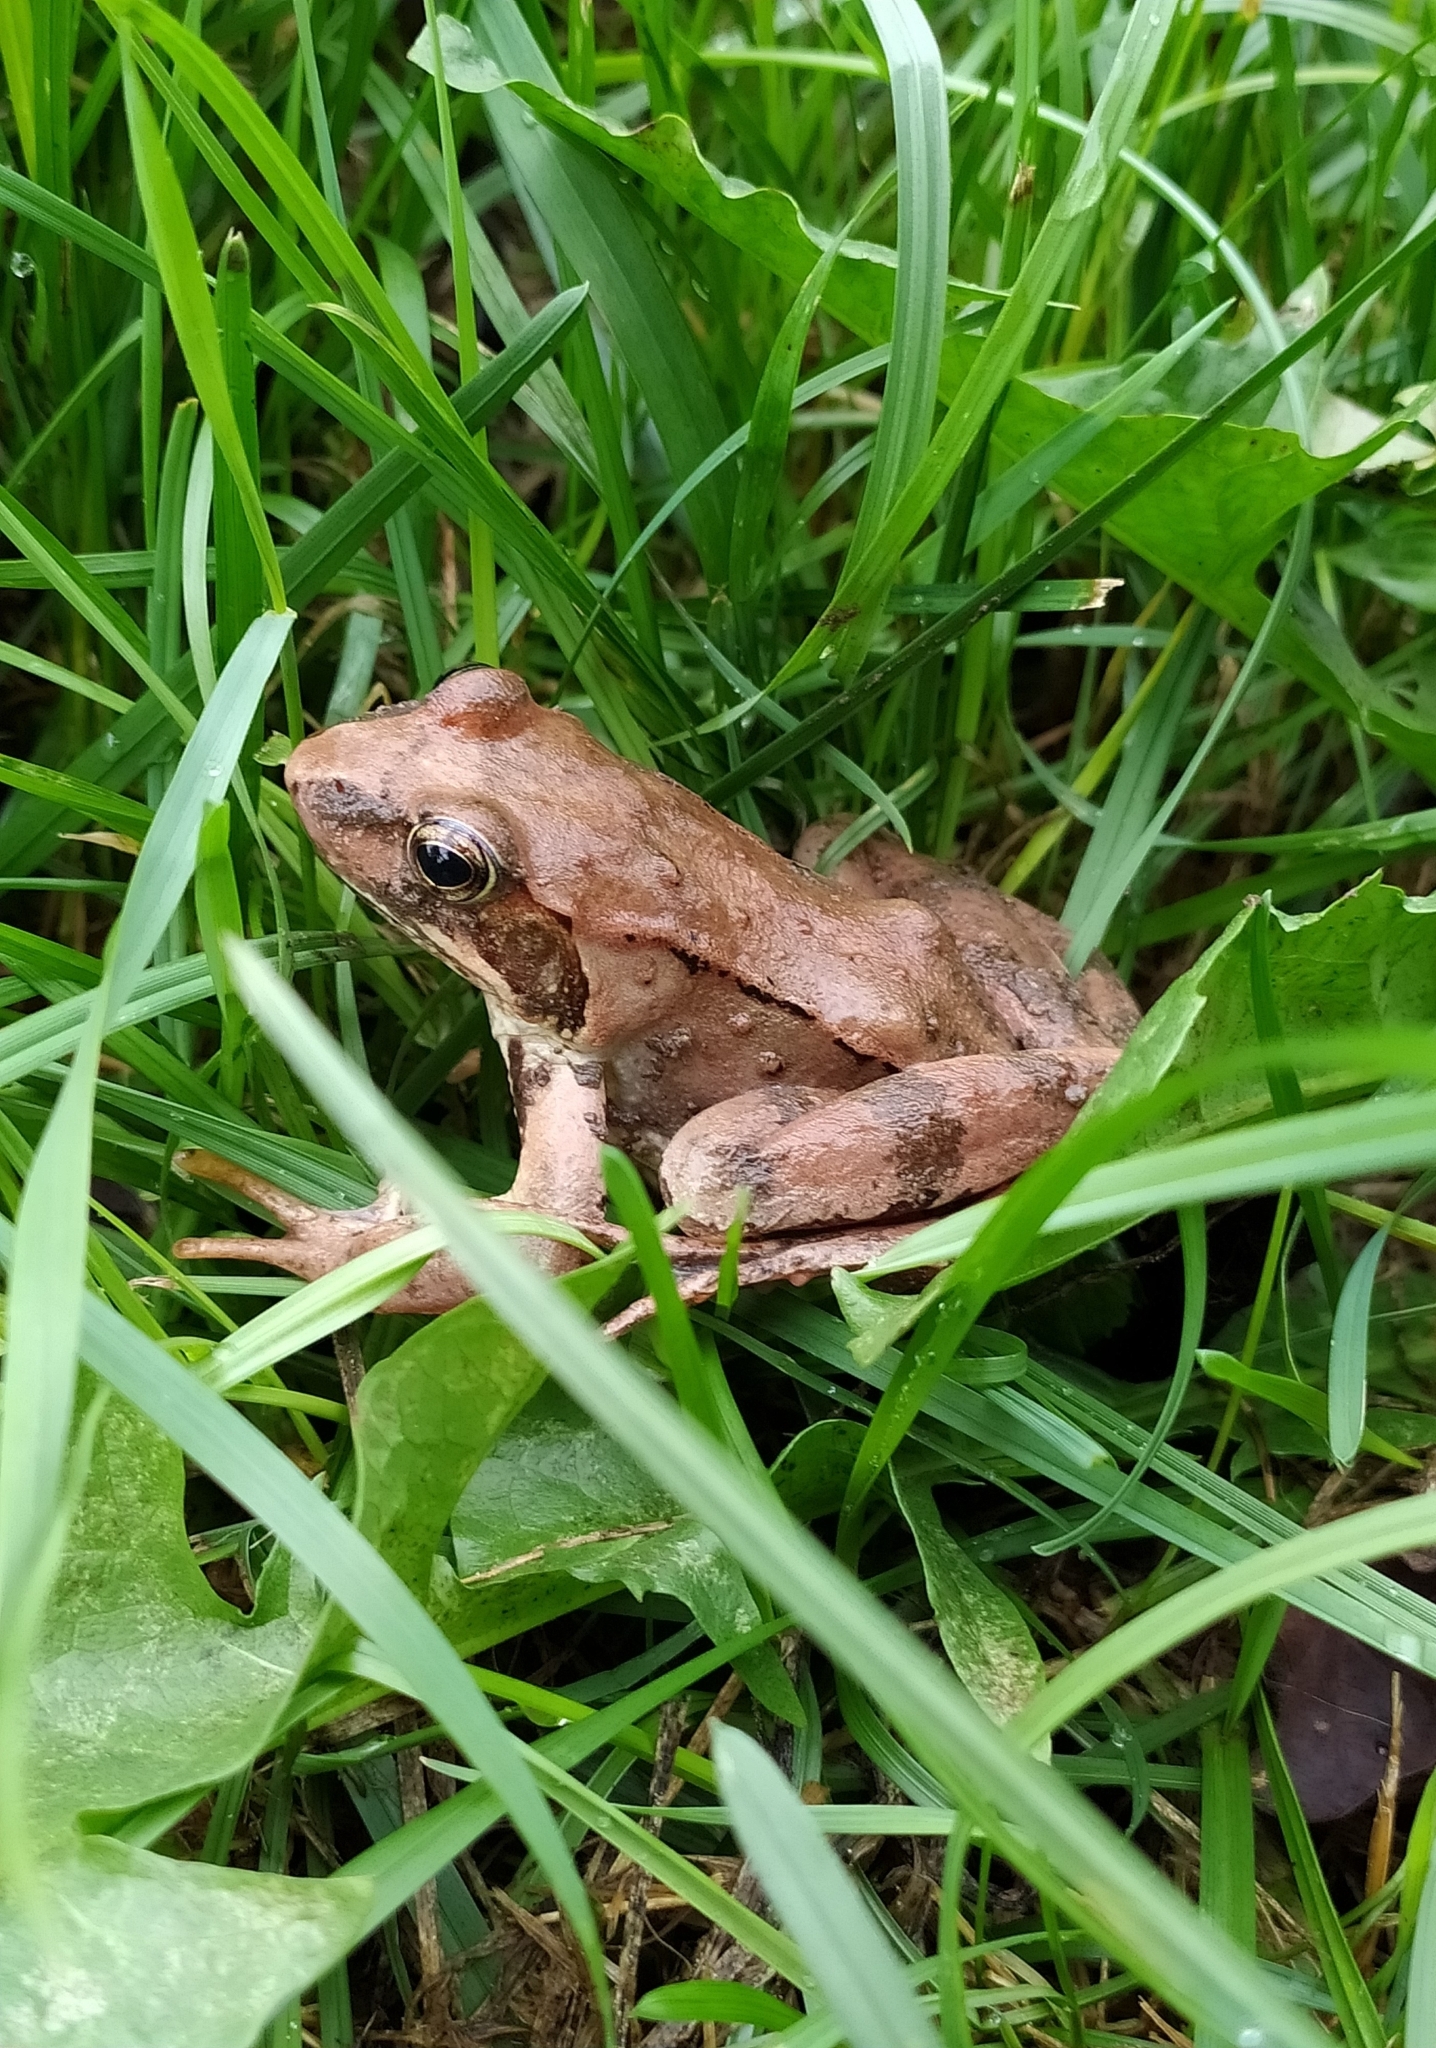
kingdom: Animalia
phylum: Chordata
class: Amphibia
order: Anura
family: Ranidae
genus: Rana
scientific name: Rana dalmatina
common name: Agile frog
